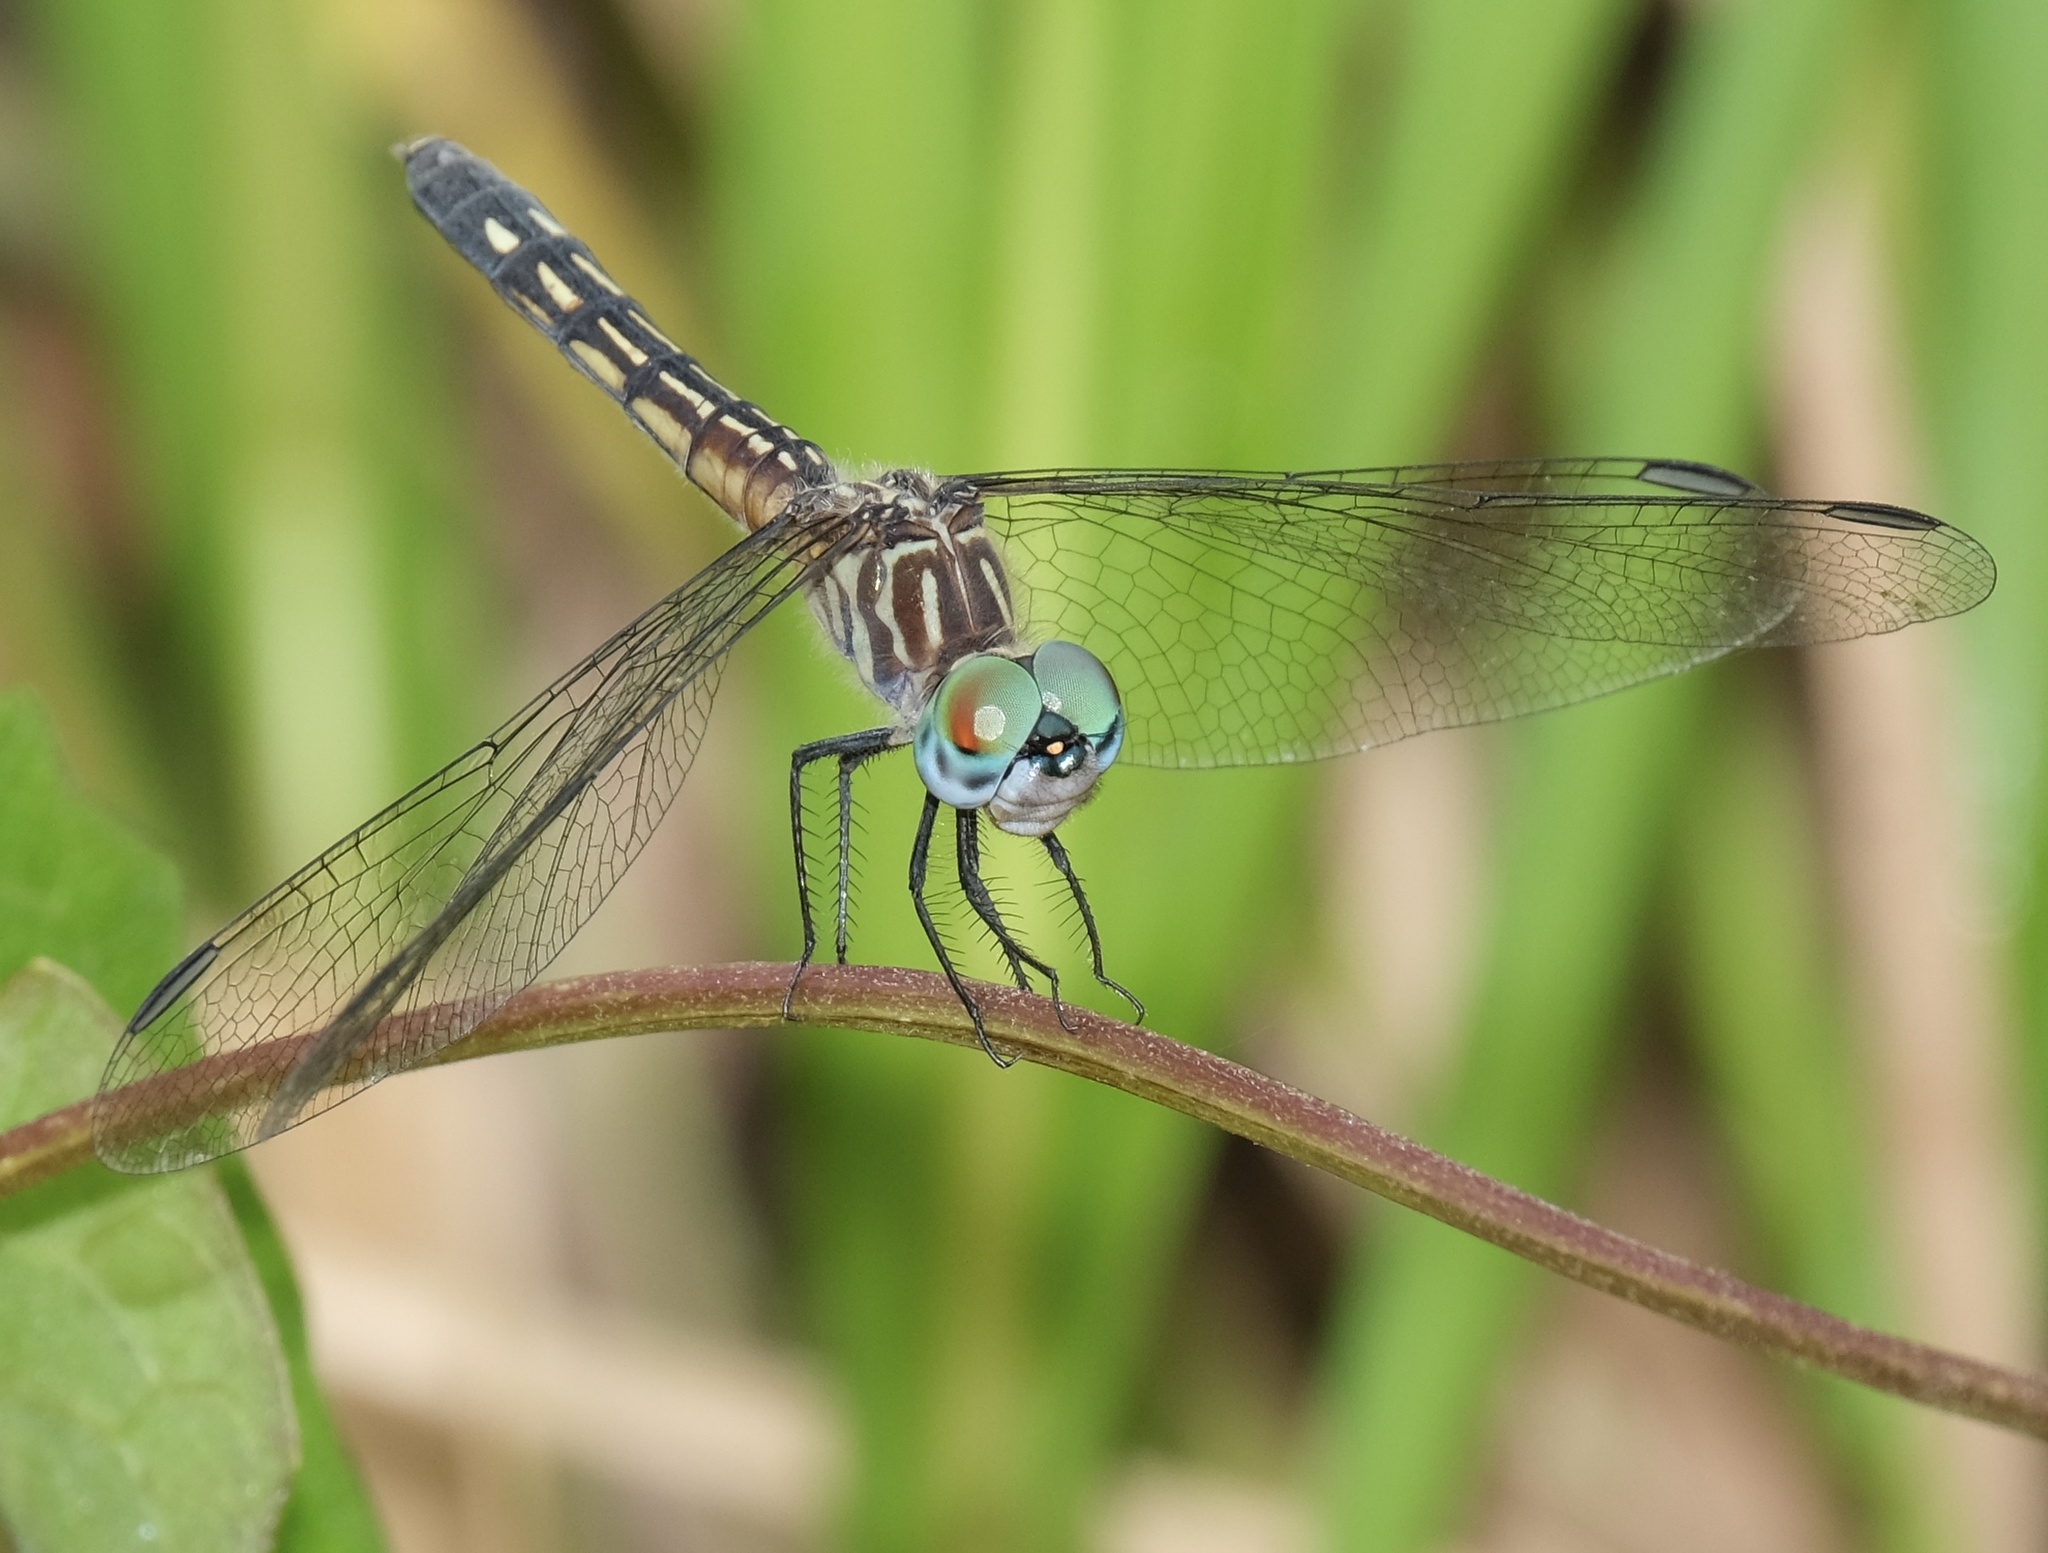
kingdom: Animalia
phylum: Arthropoda
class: Insecta
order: Odonata
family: Libellulidae
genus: Pachydiplax
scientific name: Pachydiplax longipennis
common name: Blue dasher
